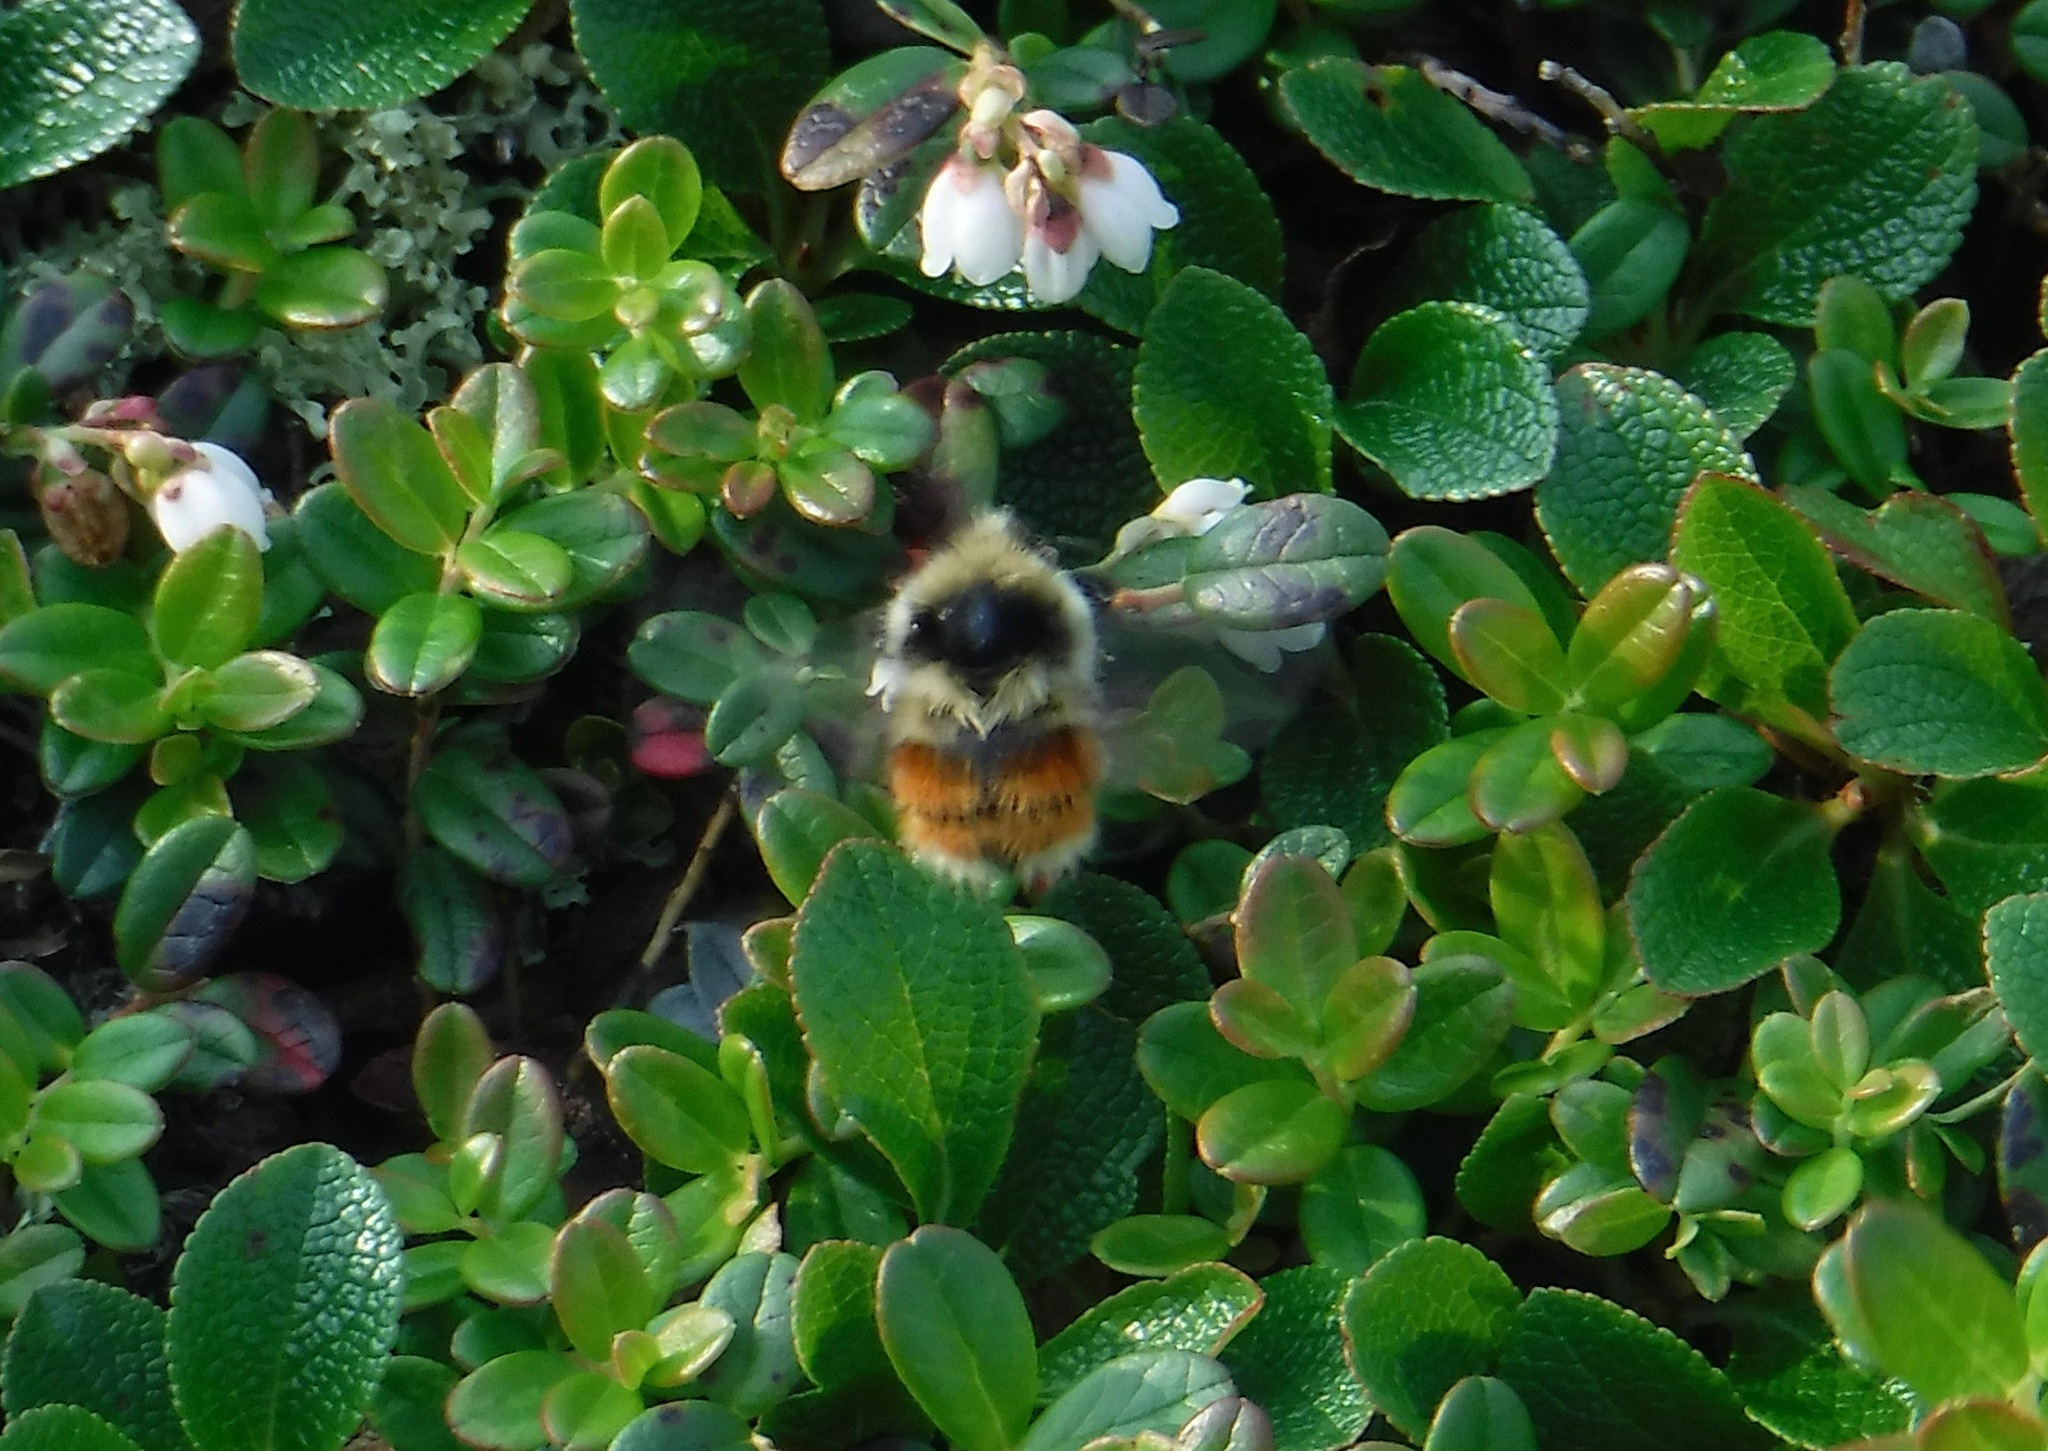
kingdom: Animalia
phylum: Arthropoda
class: Insecta
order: Hymenoptera
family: Apidae
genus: Bombus
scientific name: Bombus sylvicola
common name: Forest bumble bee
